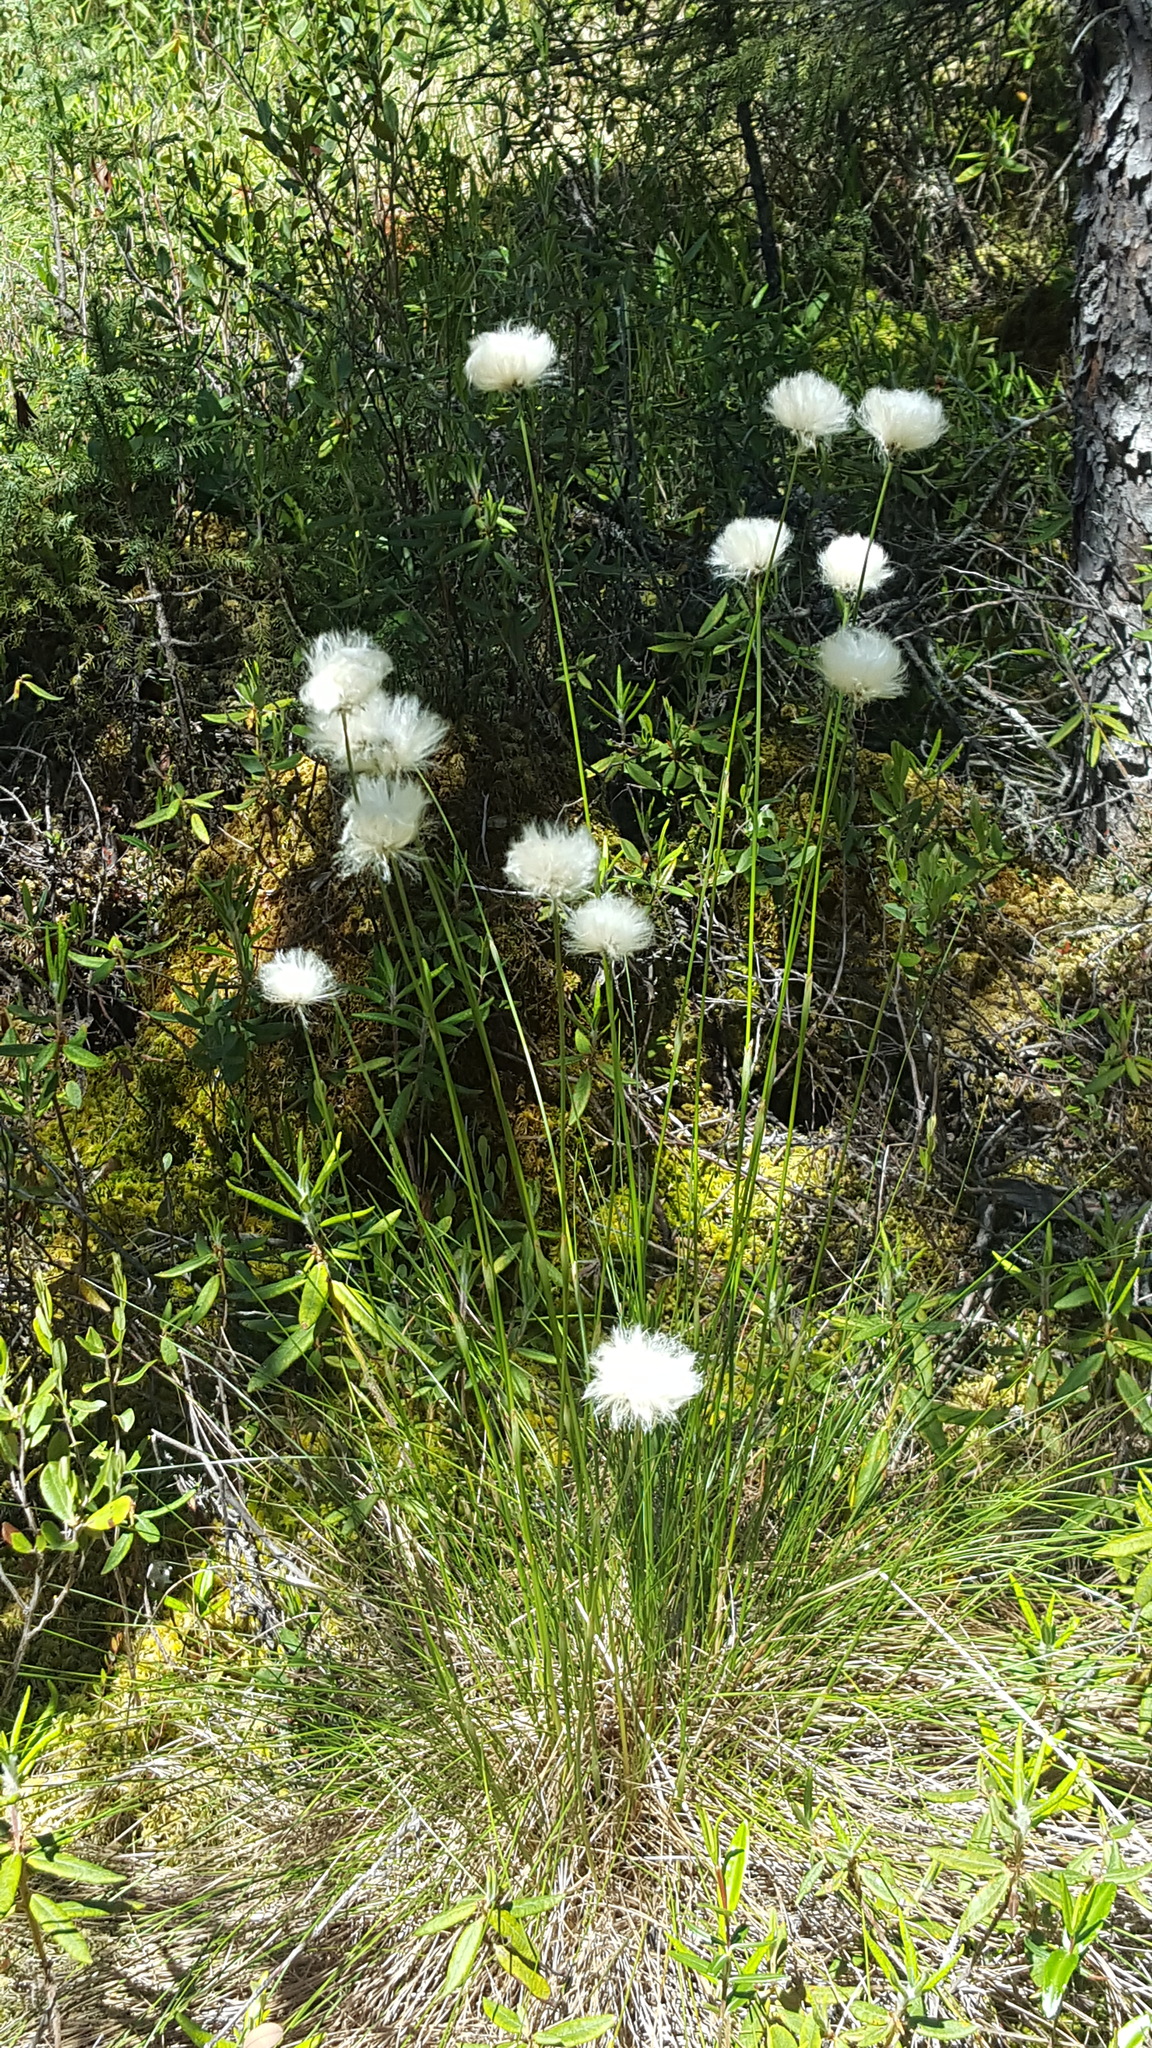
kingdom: Plantae
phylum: Tracheophyta
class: Liliopsida
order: Poales
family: Cyperaceae
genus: Eriophorum
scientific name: Eriophorum vaginatum
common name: Hare's-tail cottongrass
